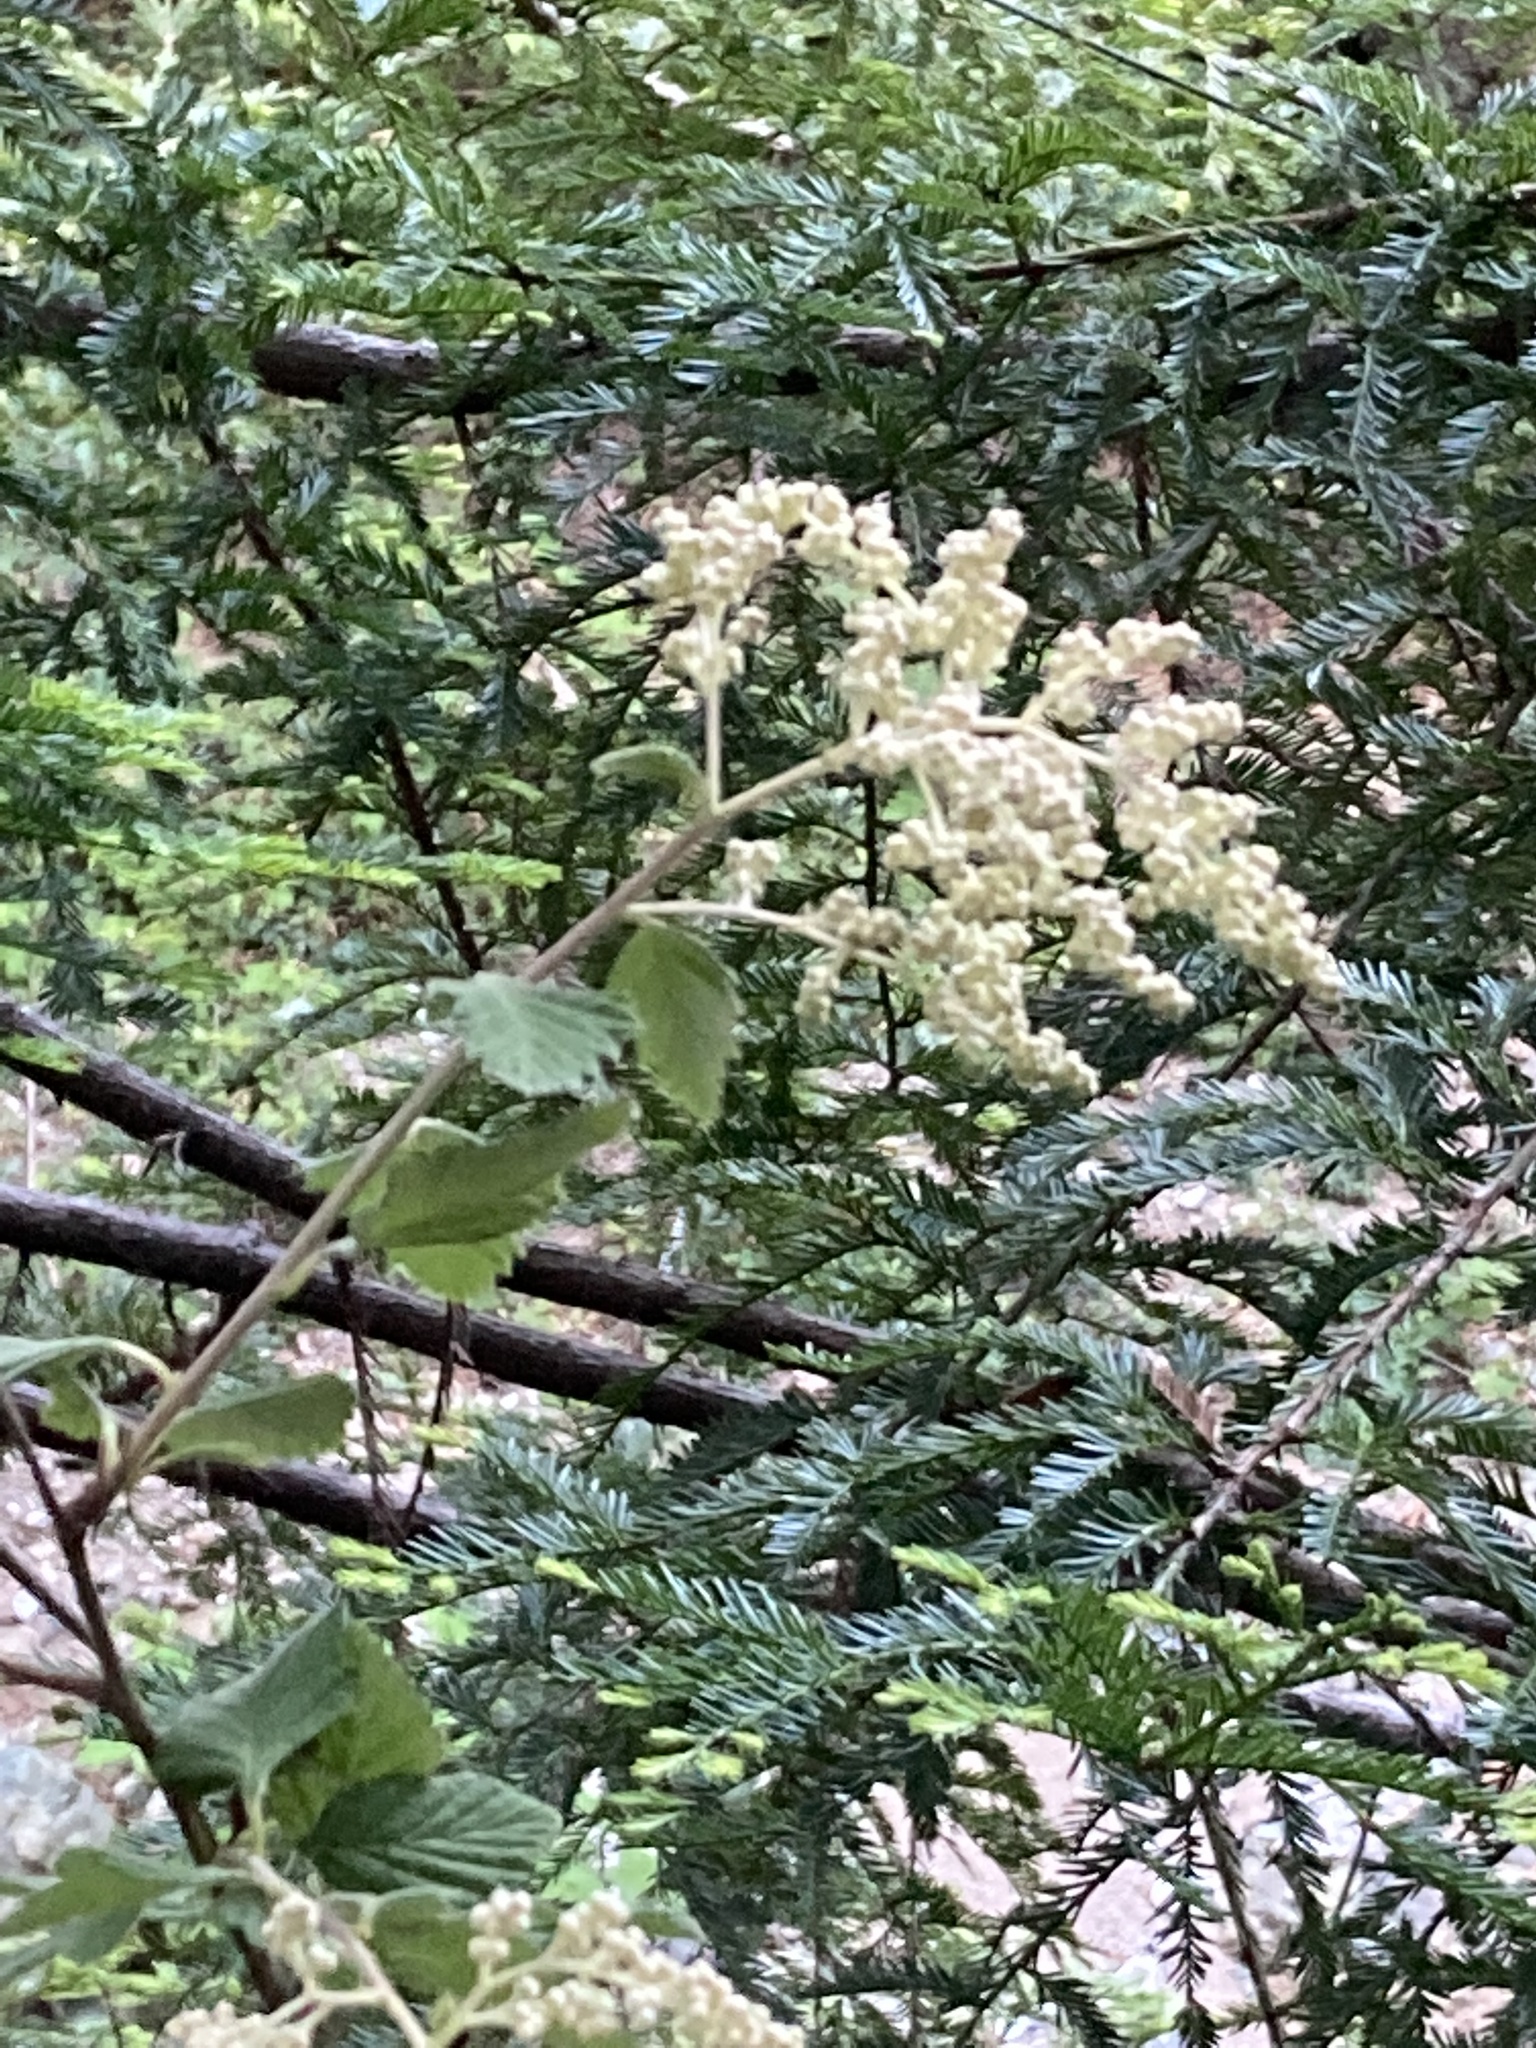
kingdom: Plantae
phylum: Tracheophyta
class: Magnoliopsida
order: Rosales
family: Rosaceae
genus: Holodiscus
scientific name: Holodiscus discolor
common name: Oceanspray
